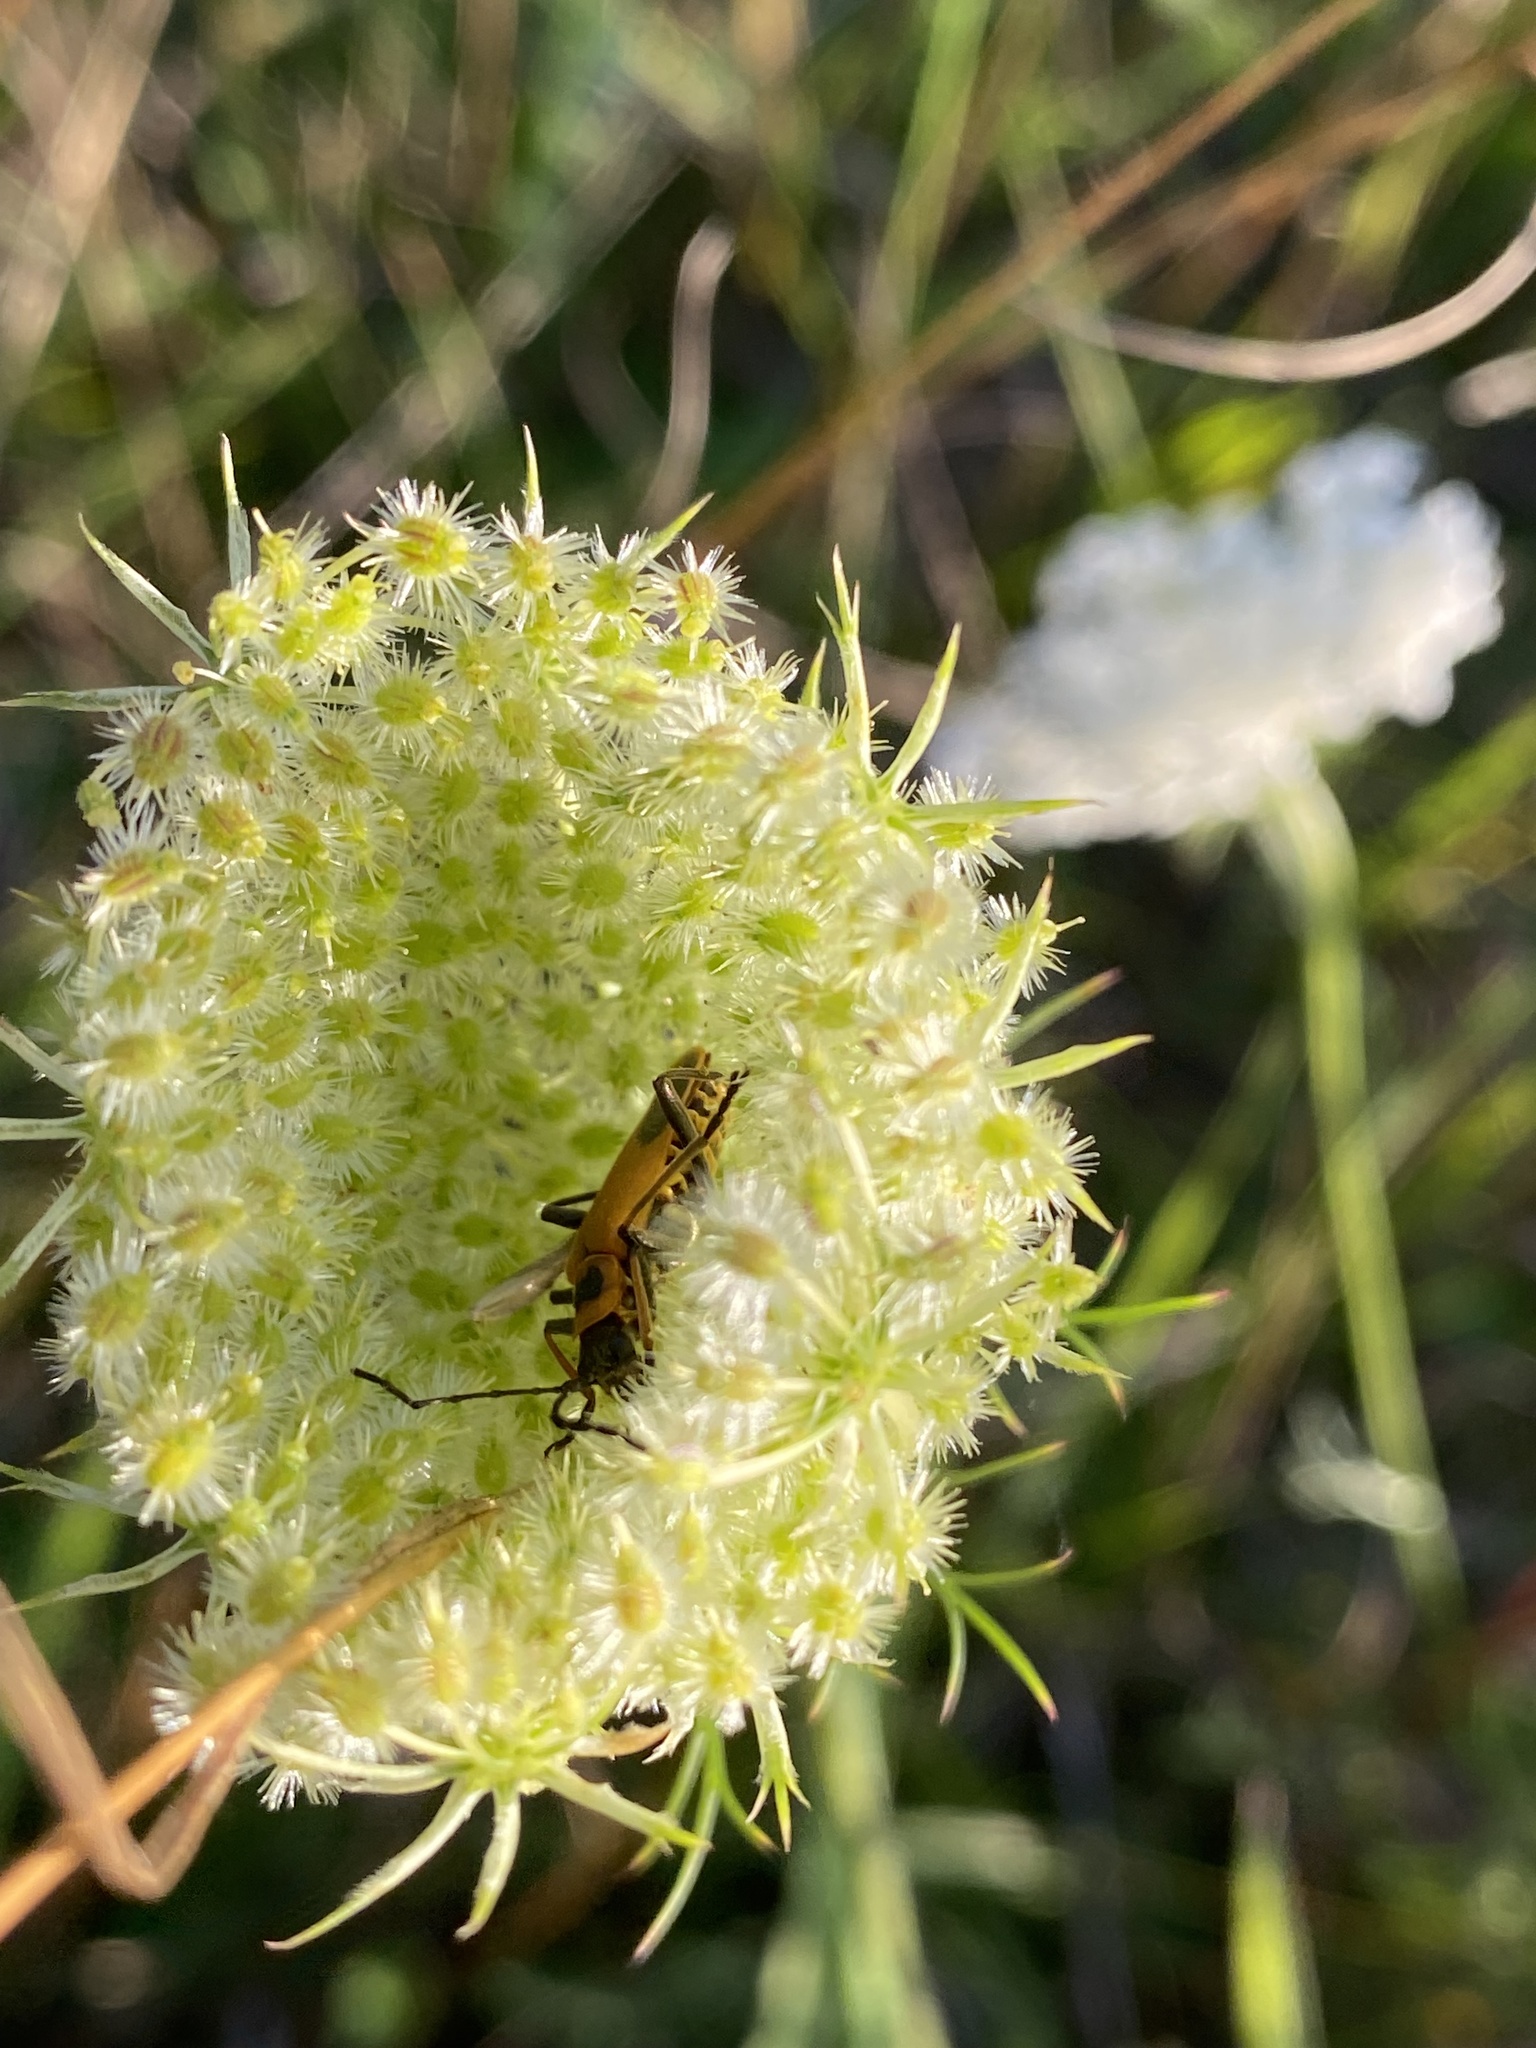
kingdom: Animalia
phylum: Arthropoda
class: Insecta
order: Coleoptera
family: Cantharidae
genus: Chauliognathus
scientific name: Chauliognathus pensylvanicus
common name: Goldenrod soldier beetle
